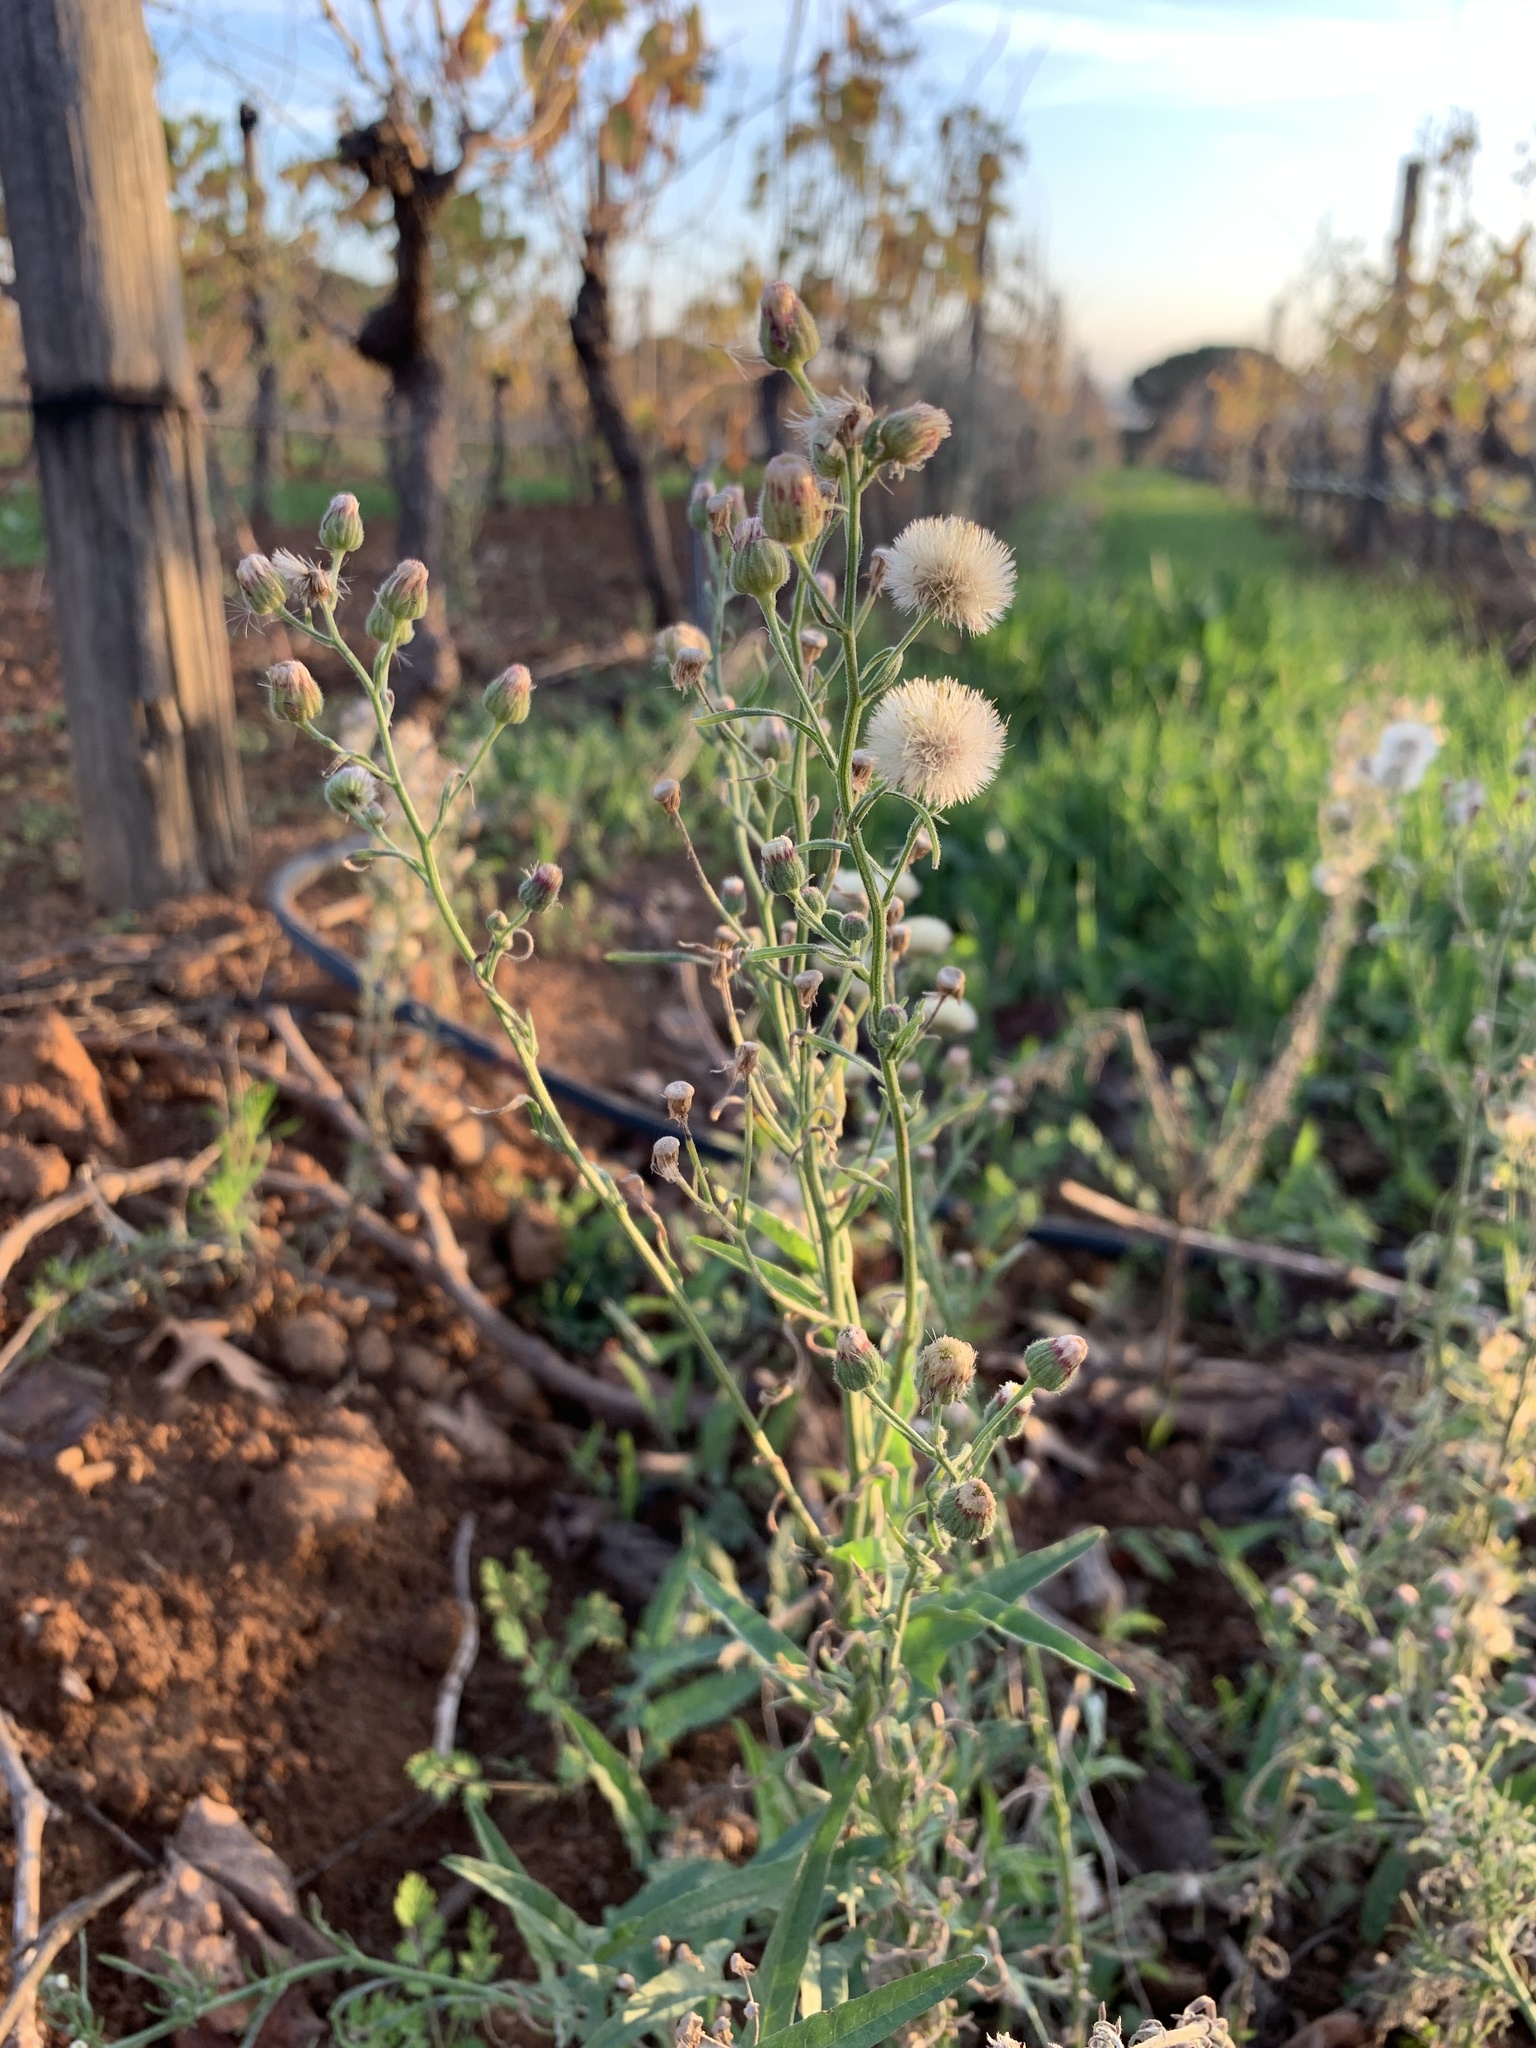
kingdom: Plantae
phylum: Tracheophyta
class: Magnoliopsida
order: Asterales
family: Asteraceae
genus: Erigeron
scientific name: Erigeron bonariensis
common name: Argentine fleabane
